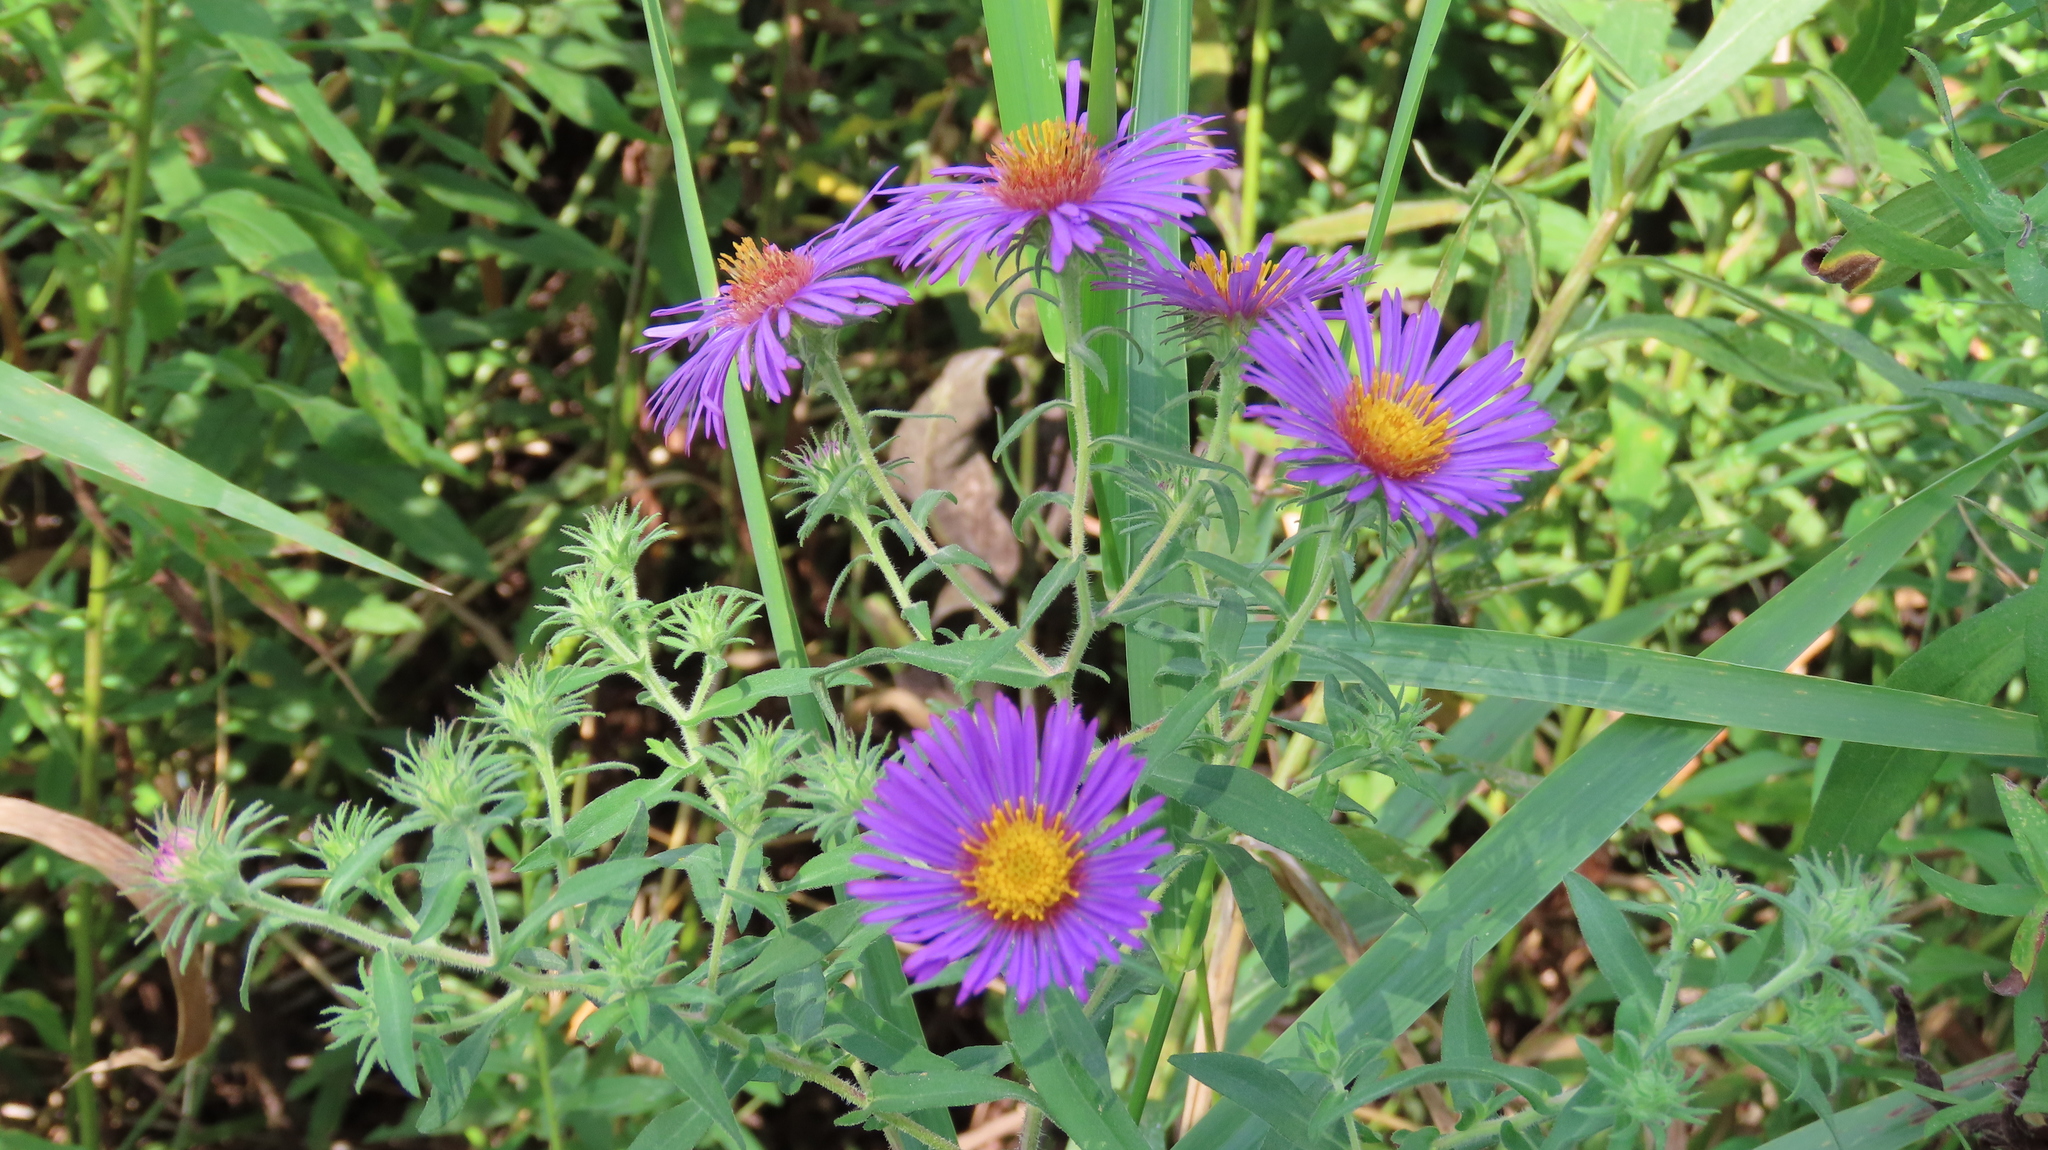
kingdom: Plantae
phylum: Tracheophyta
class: Magnoliopsida
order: Asterales
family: Asteraceae
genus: Symphyotrichum
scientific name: Symphyotrichum novae-angliae
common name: Michaelmas daisy
